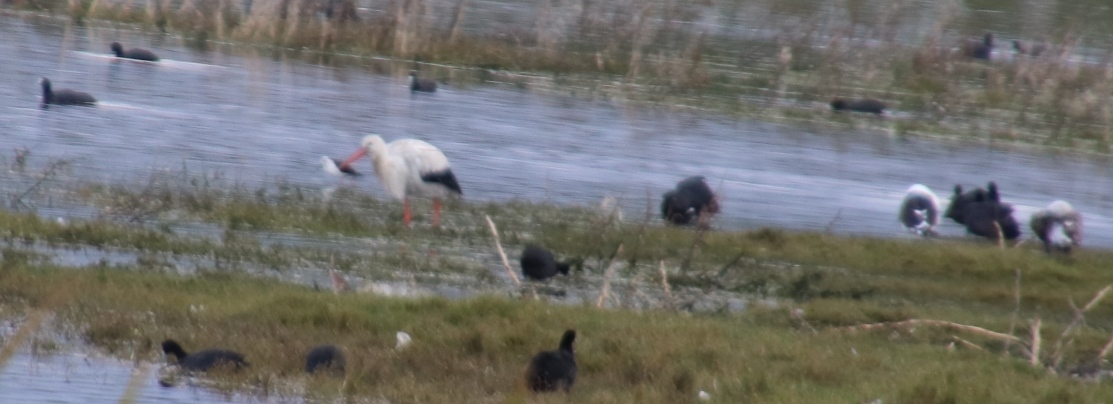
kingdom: Animalia
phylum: Chordata
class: Aves
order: Ciconiiformes
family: Ciconiidae
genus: Ciconia
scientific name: Ciconia ciconia
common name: White stork
